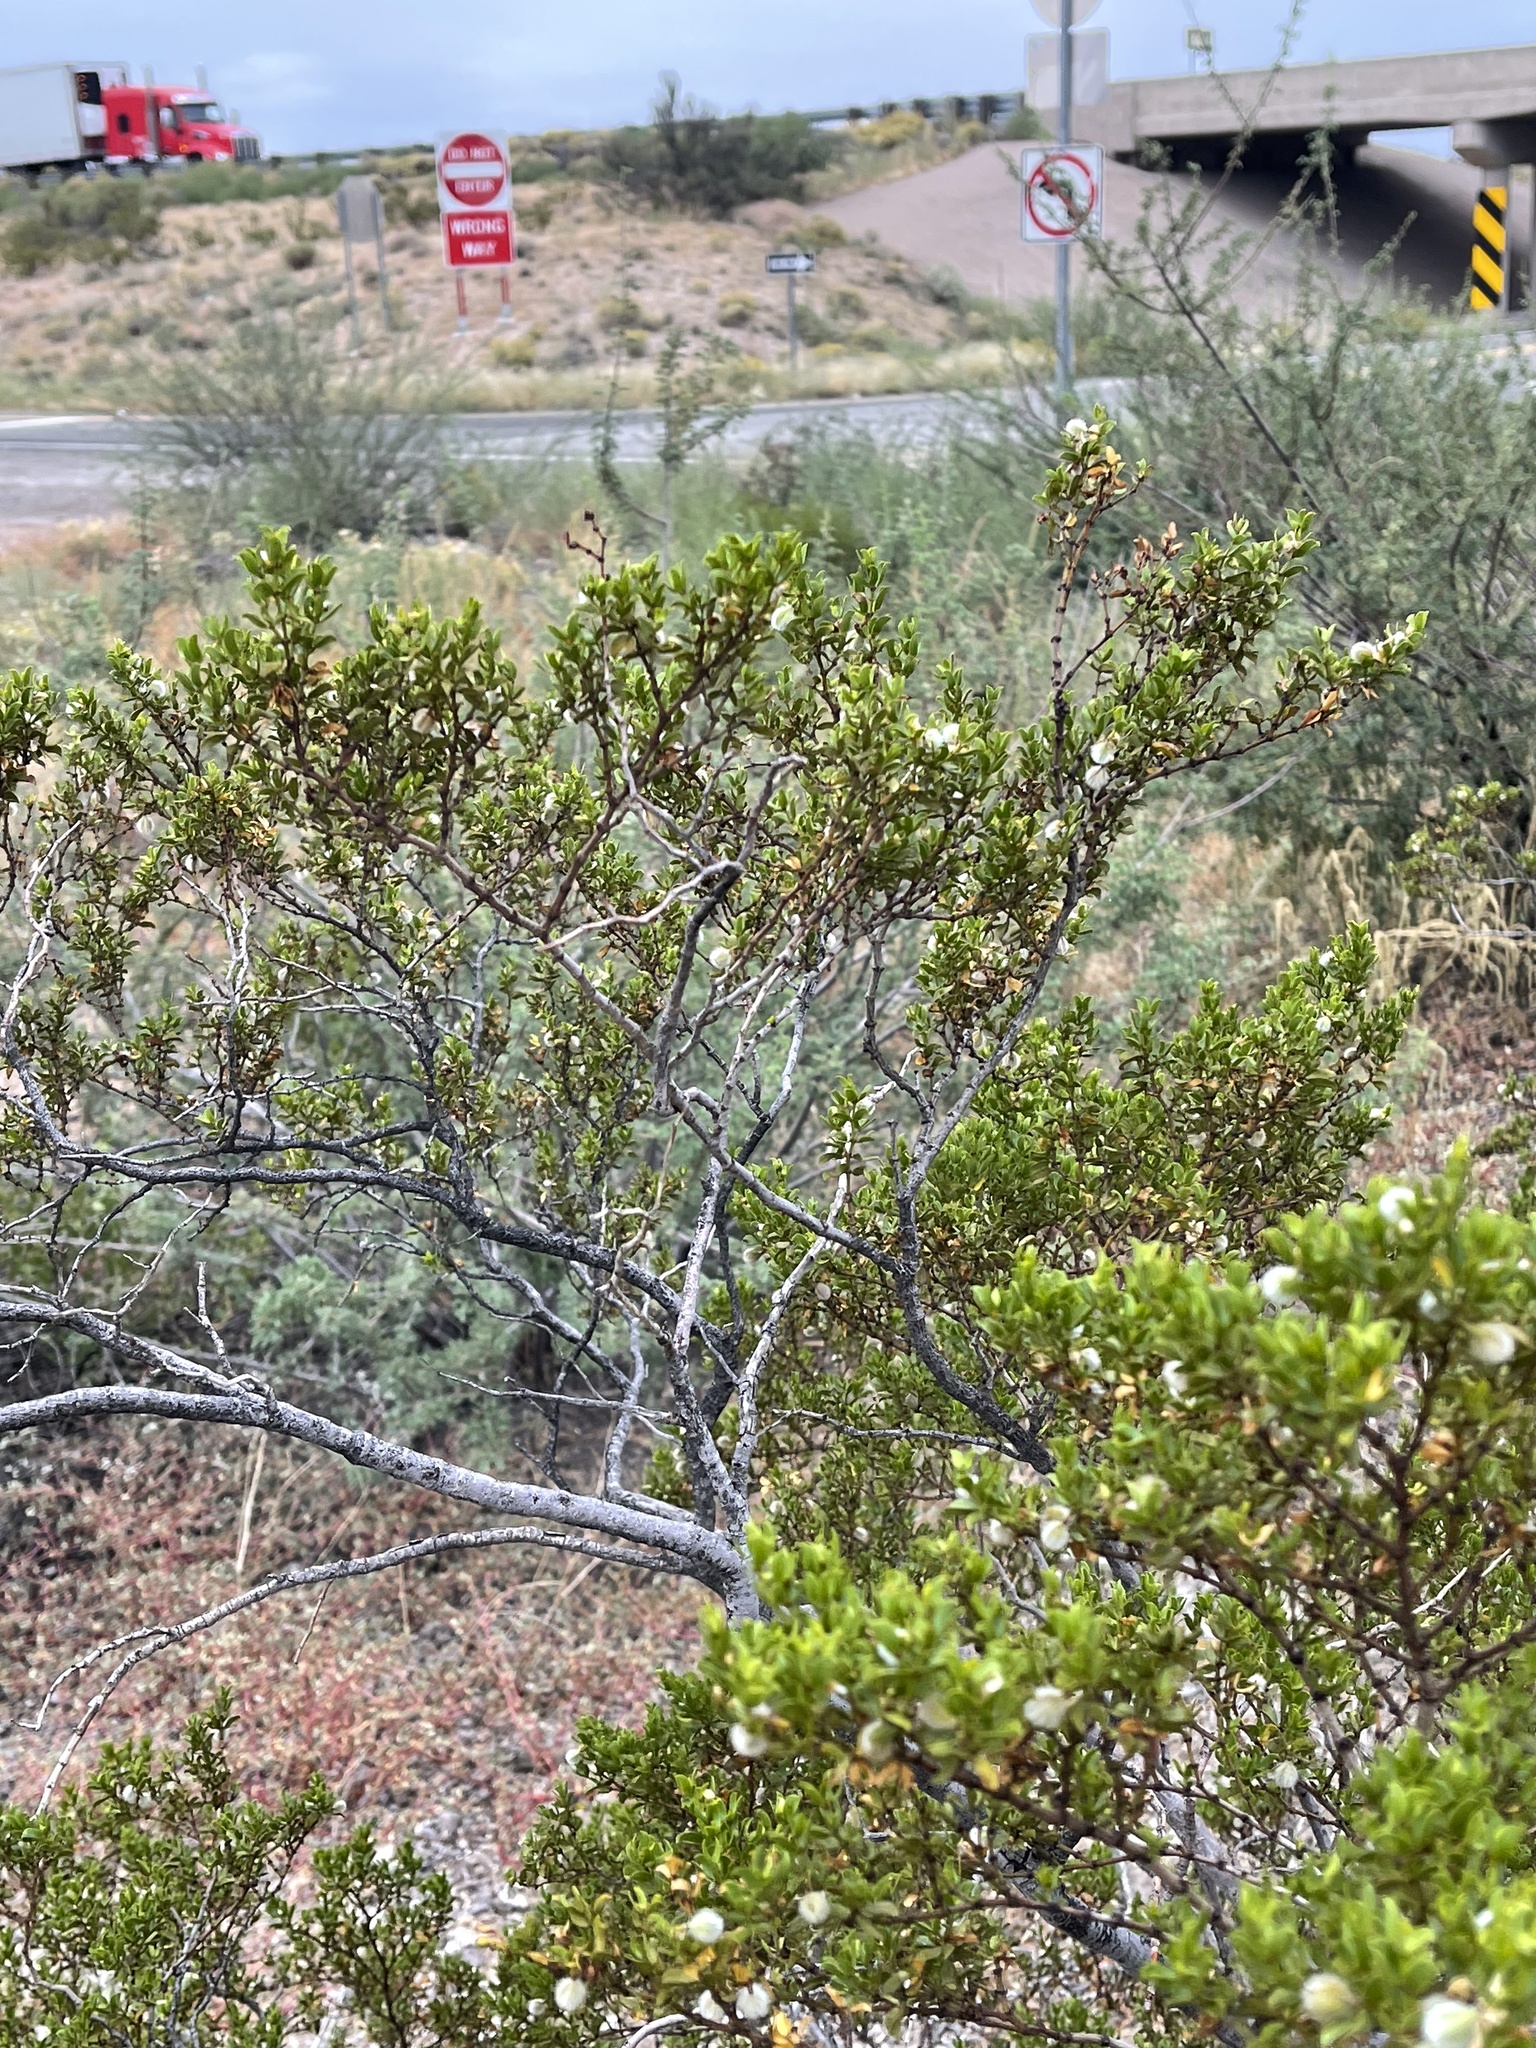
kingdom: Plantae
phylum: Tracheophyta
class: Magnoliopsida
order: Zygophyllales
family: Zygophyllaceae
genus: Larrea
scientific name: Larrea tridentata
